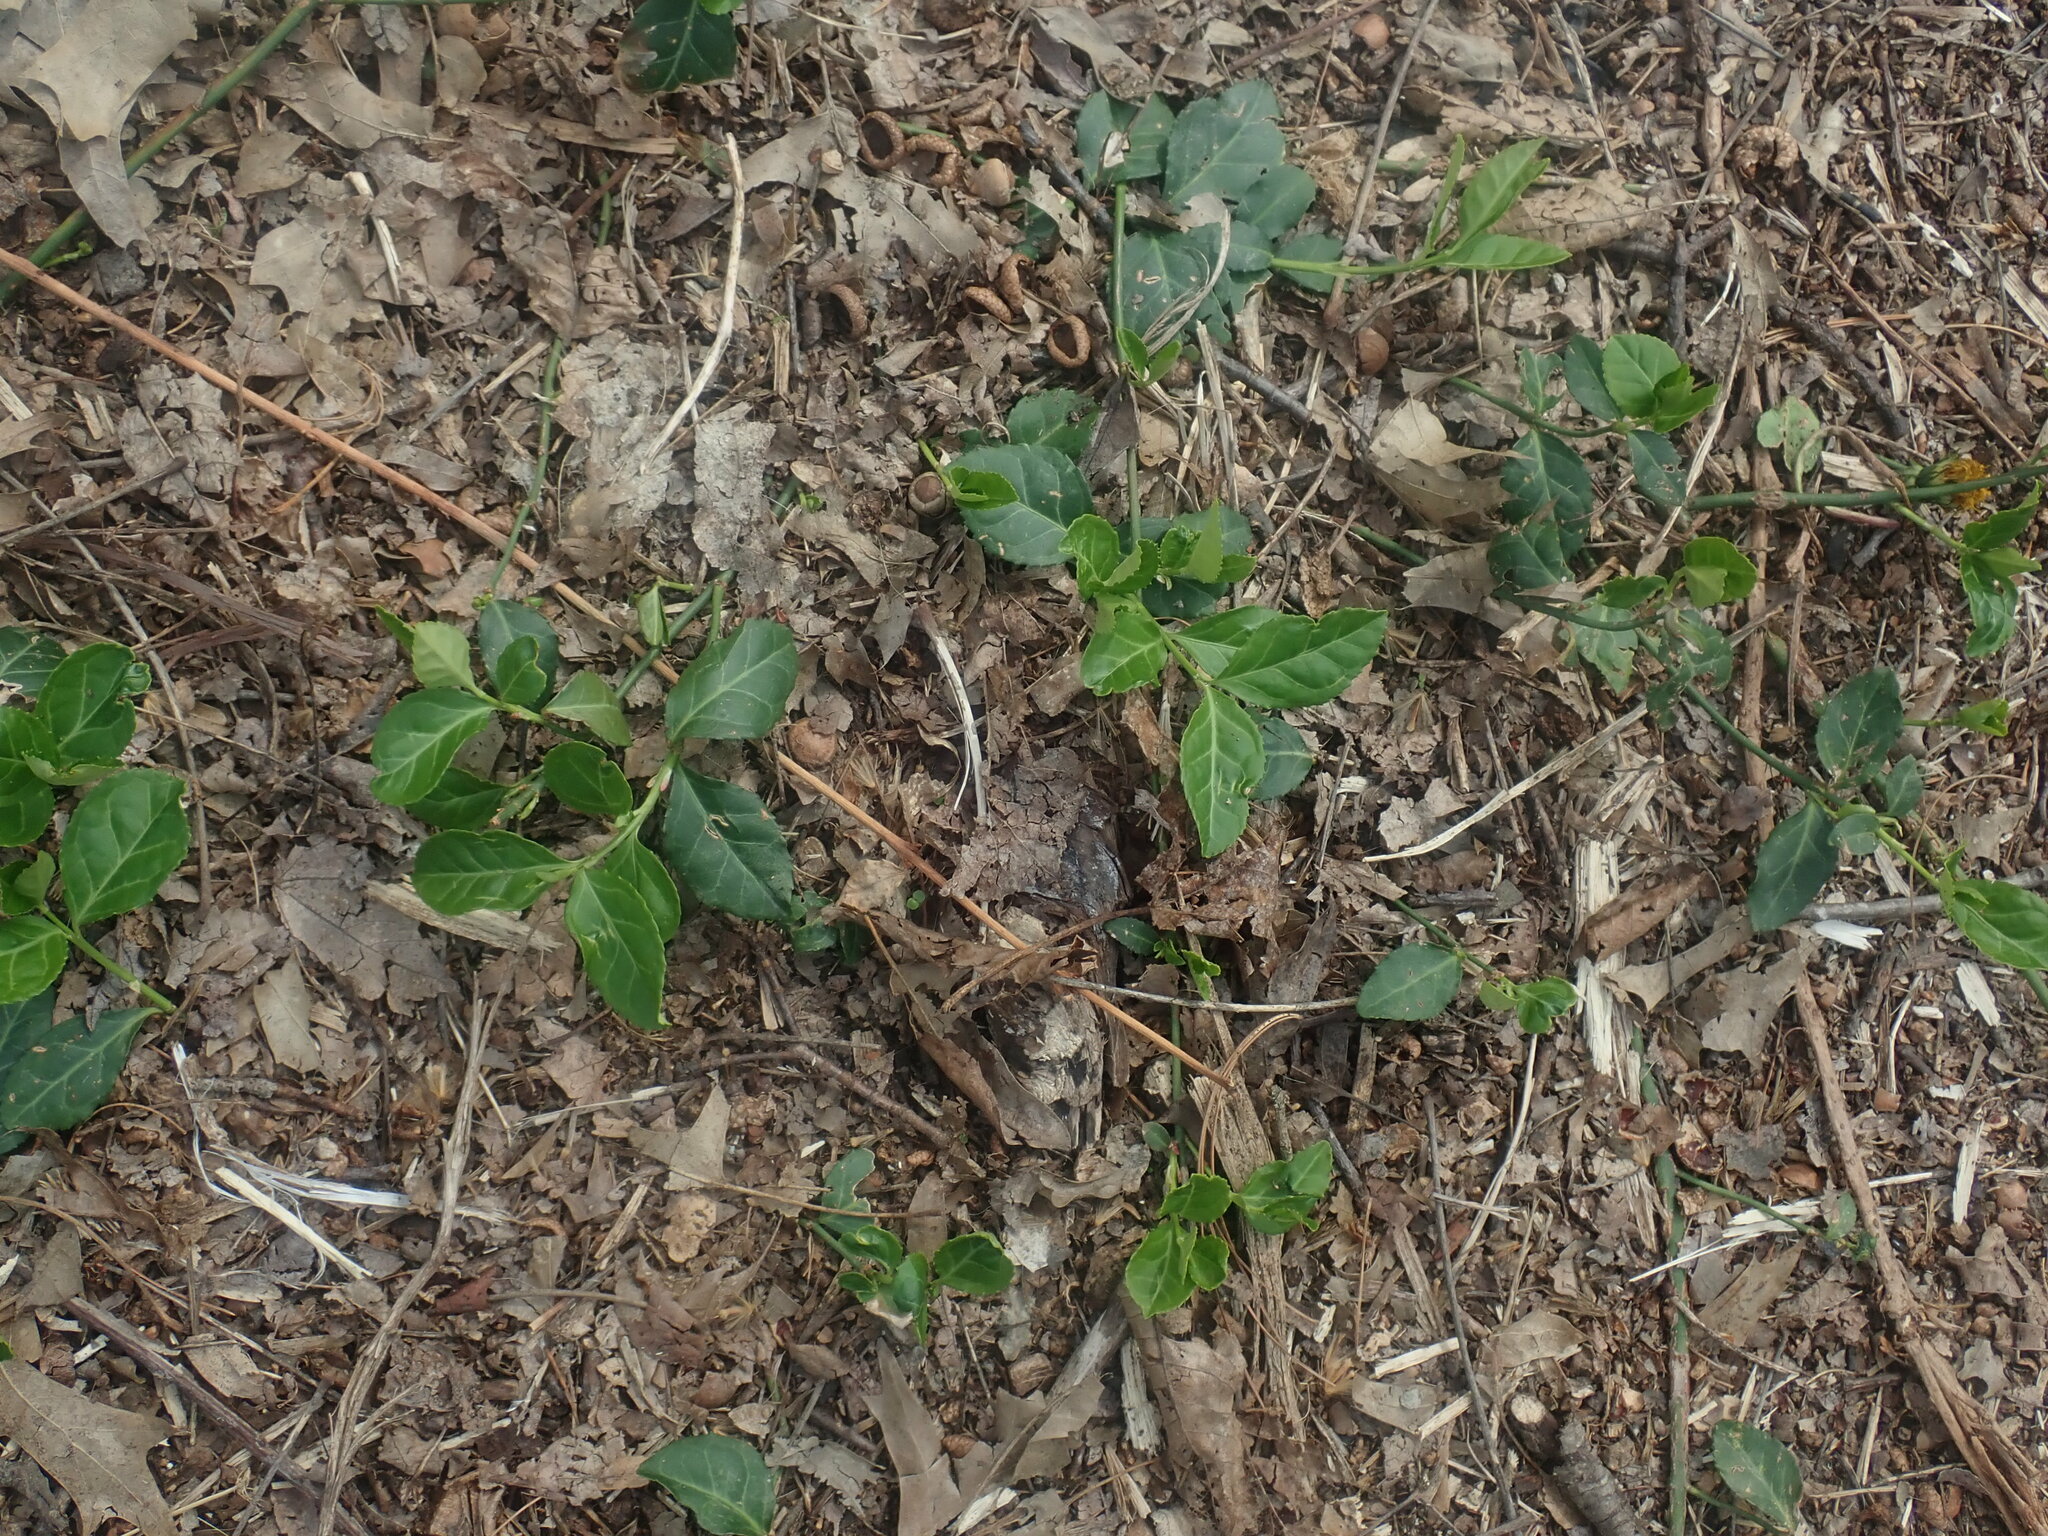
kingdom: Plantae
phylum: Tracheophyta
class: Magnoliopsida
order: Celastrales
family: Celastraceae
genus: Euonymus
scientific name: Euonymus fortunei
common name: Climbing euonymus
